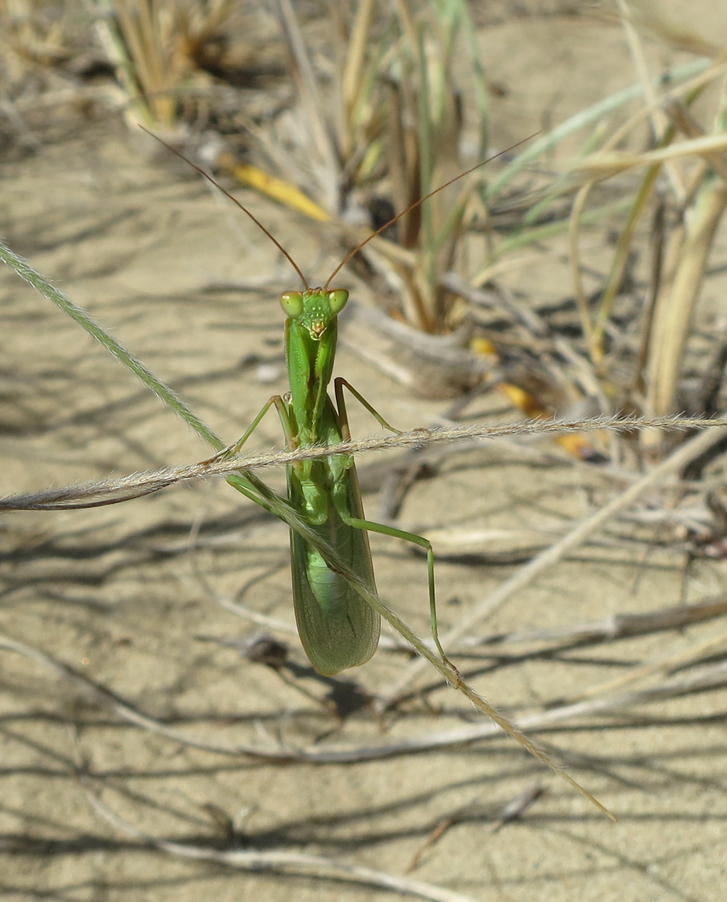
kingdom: Animalia
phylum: Arthropoda
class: Insecta
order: Mantodea
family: Mantidae
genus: Orthodera
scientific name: Orthodera novaezealandiae
